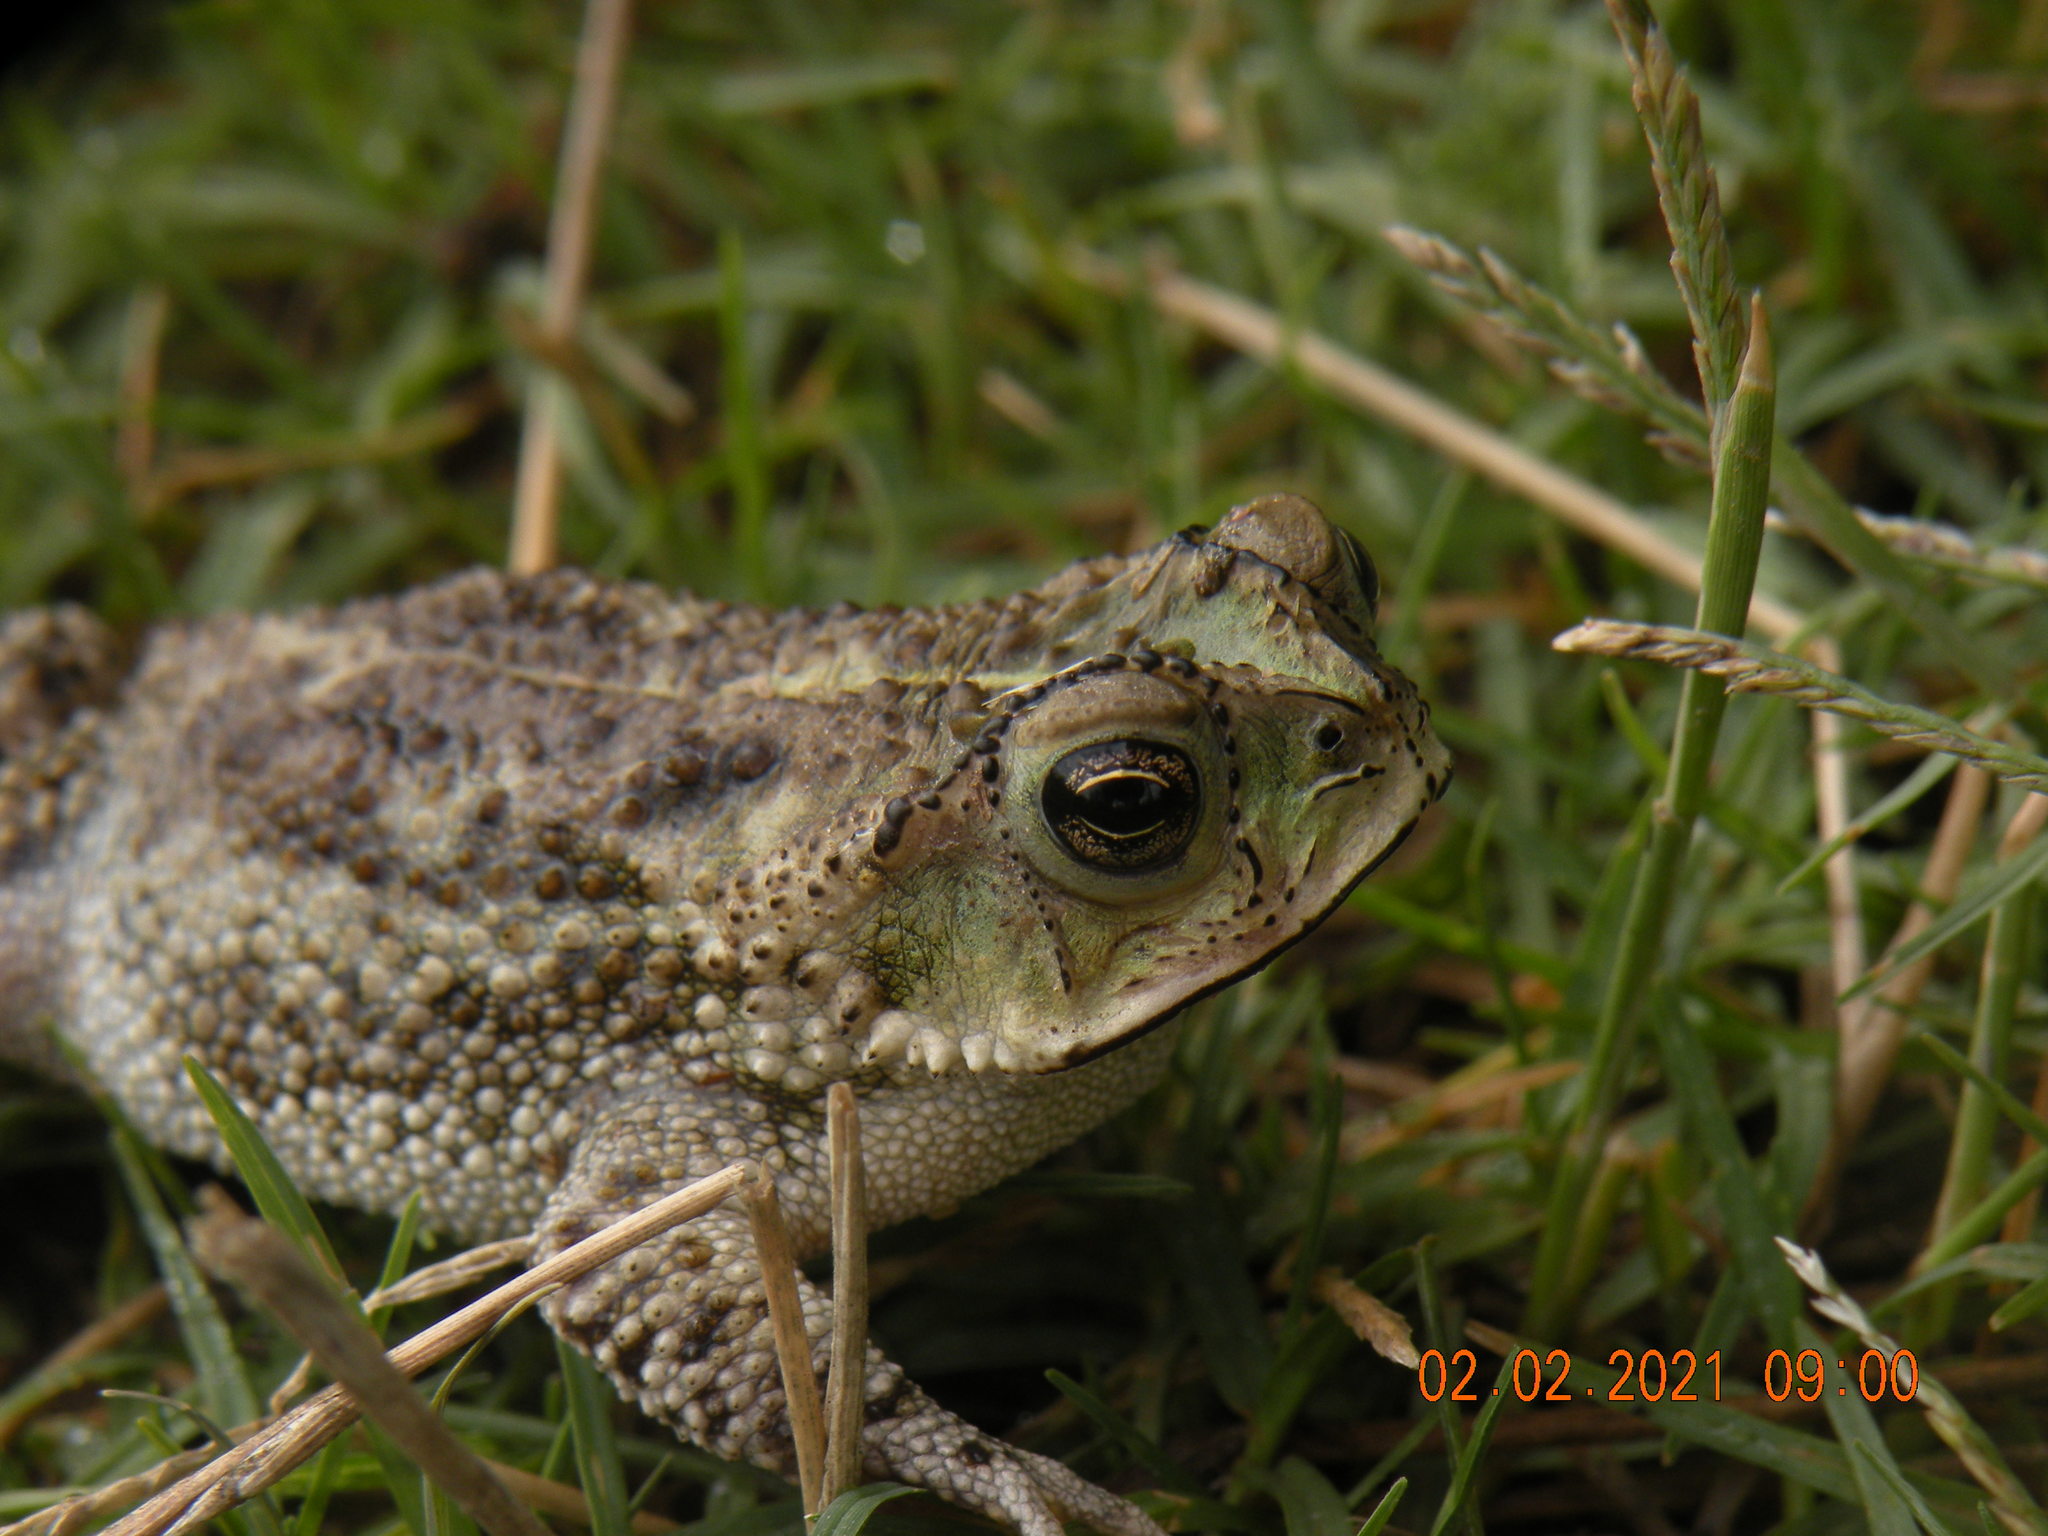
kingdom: Animalia
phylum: Chordata
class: Amphibia
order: Anura
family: Bufonidae
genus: Rhinella
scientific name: Rhinella dorbignyi
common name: D´orbigny’s toad
